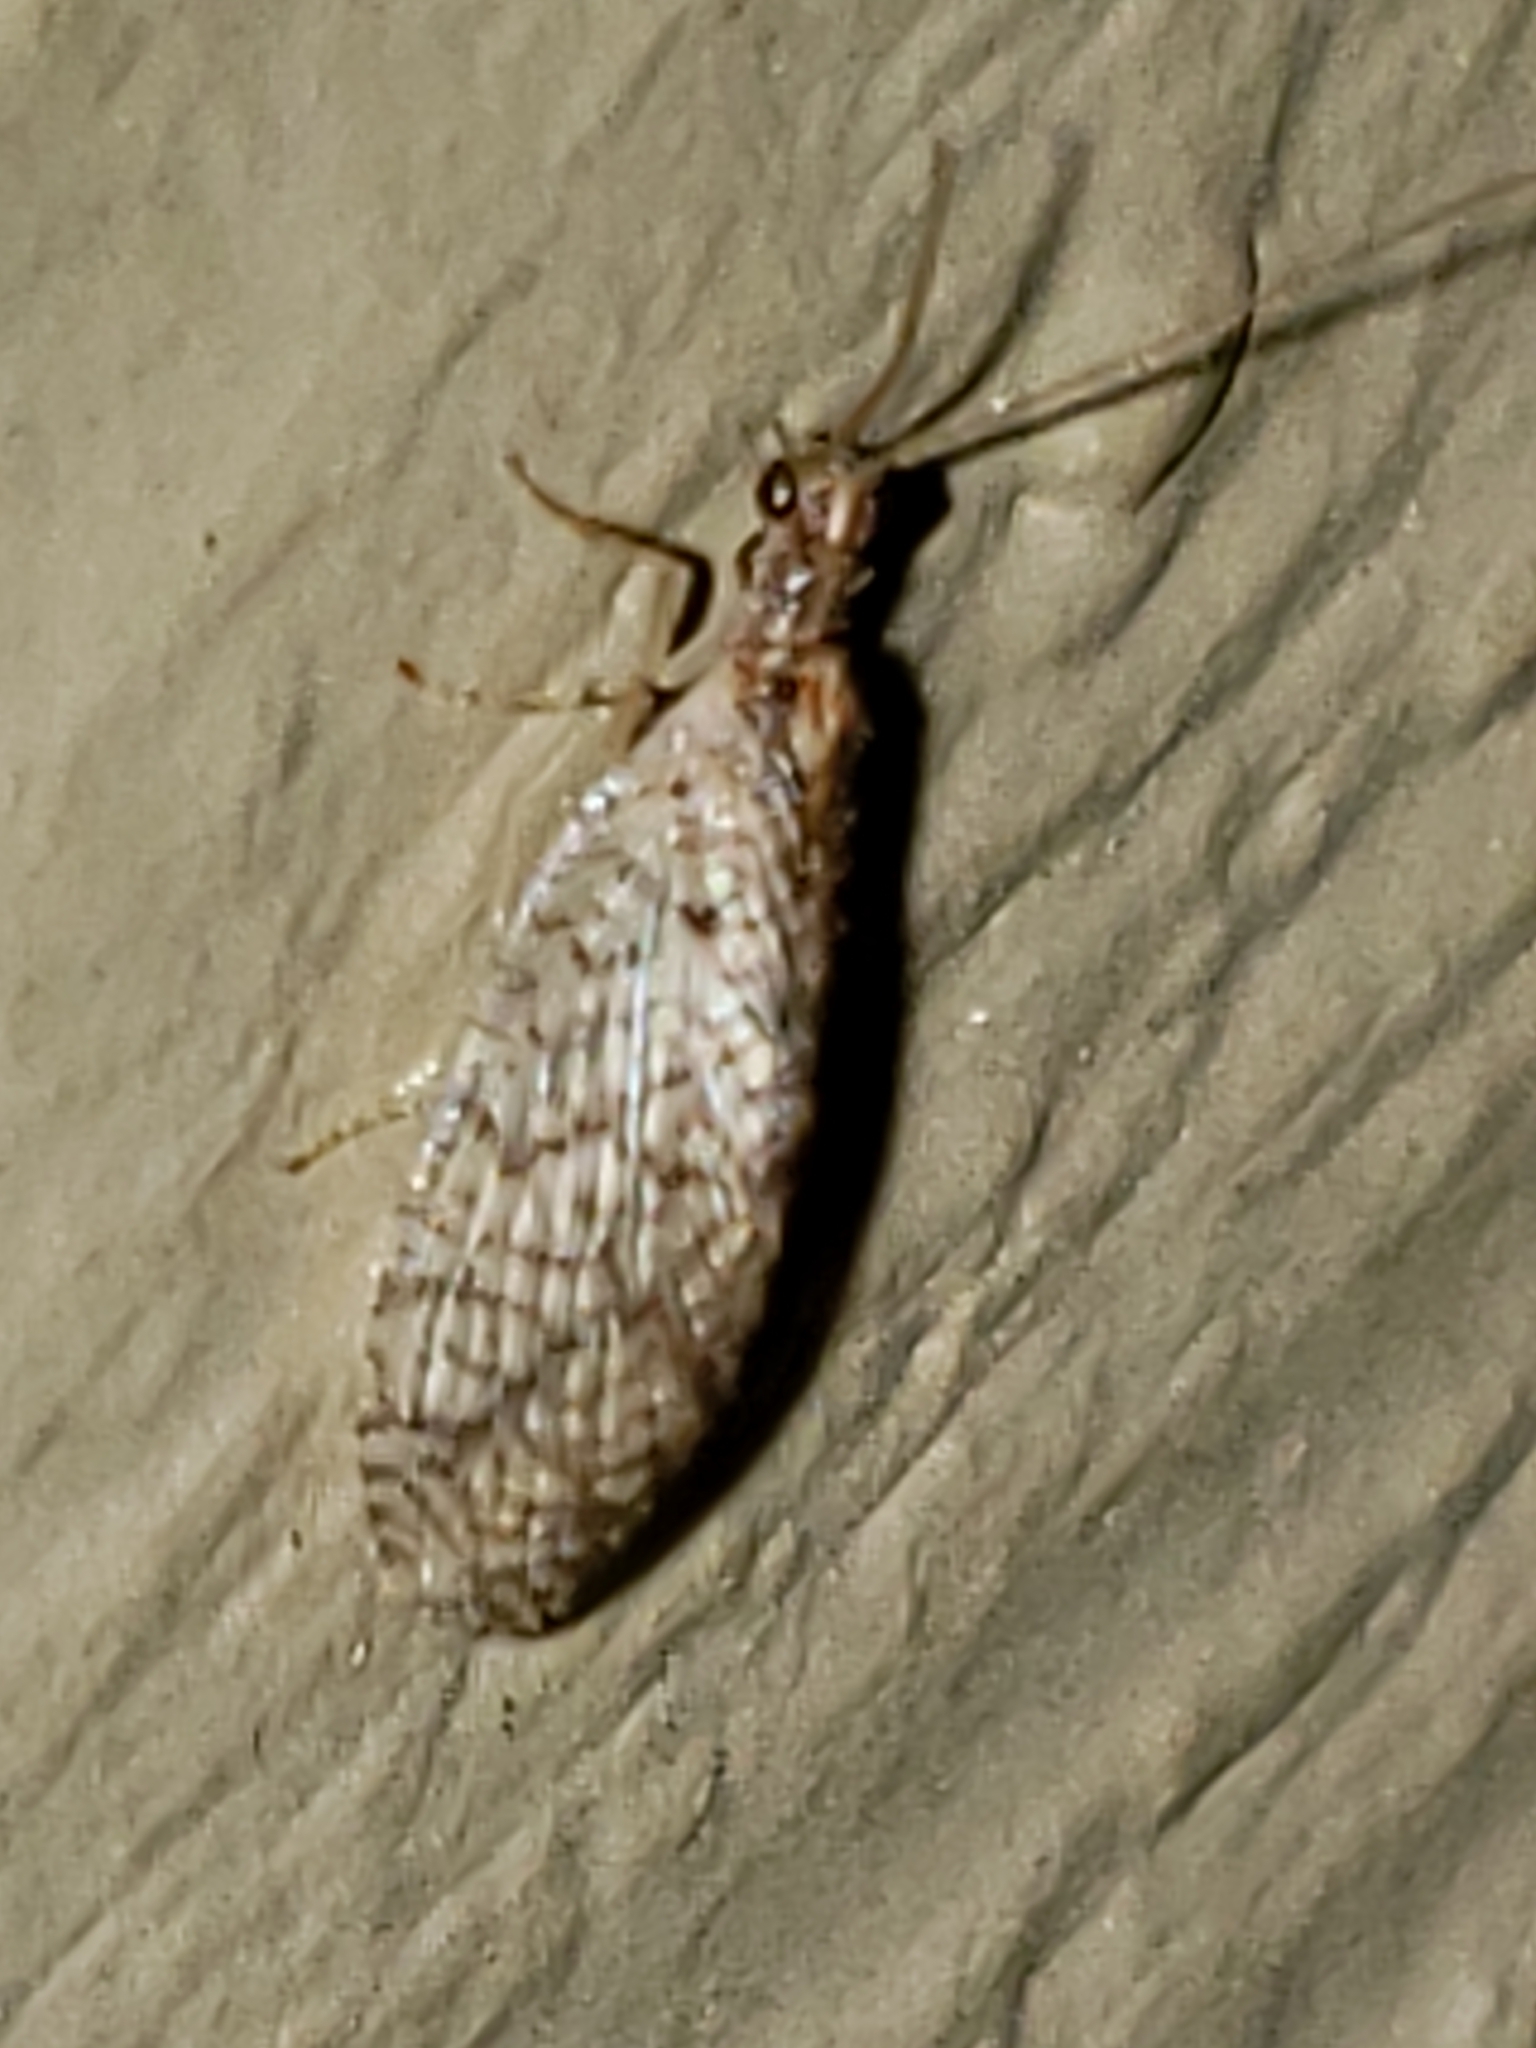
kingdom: Animalia
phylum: Arthropoda
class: Insecta
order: Neuroptera
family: Hemerobiidae
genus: Micromus
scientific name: Micromus posticus
